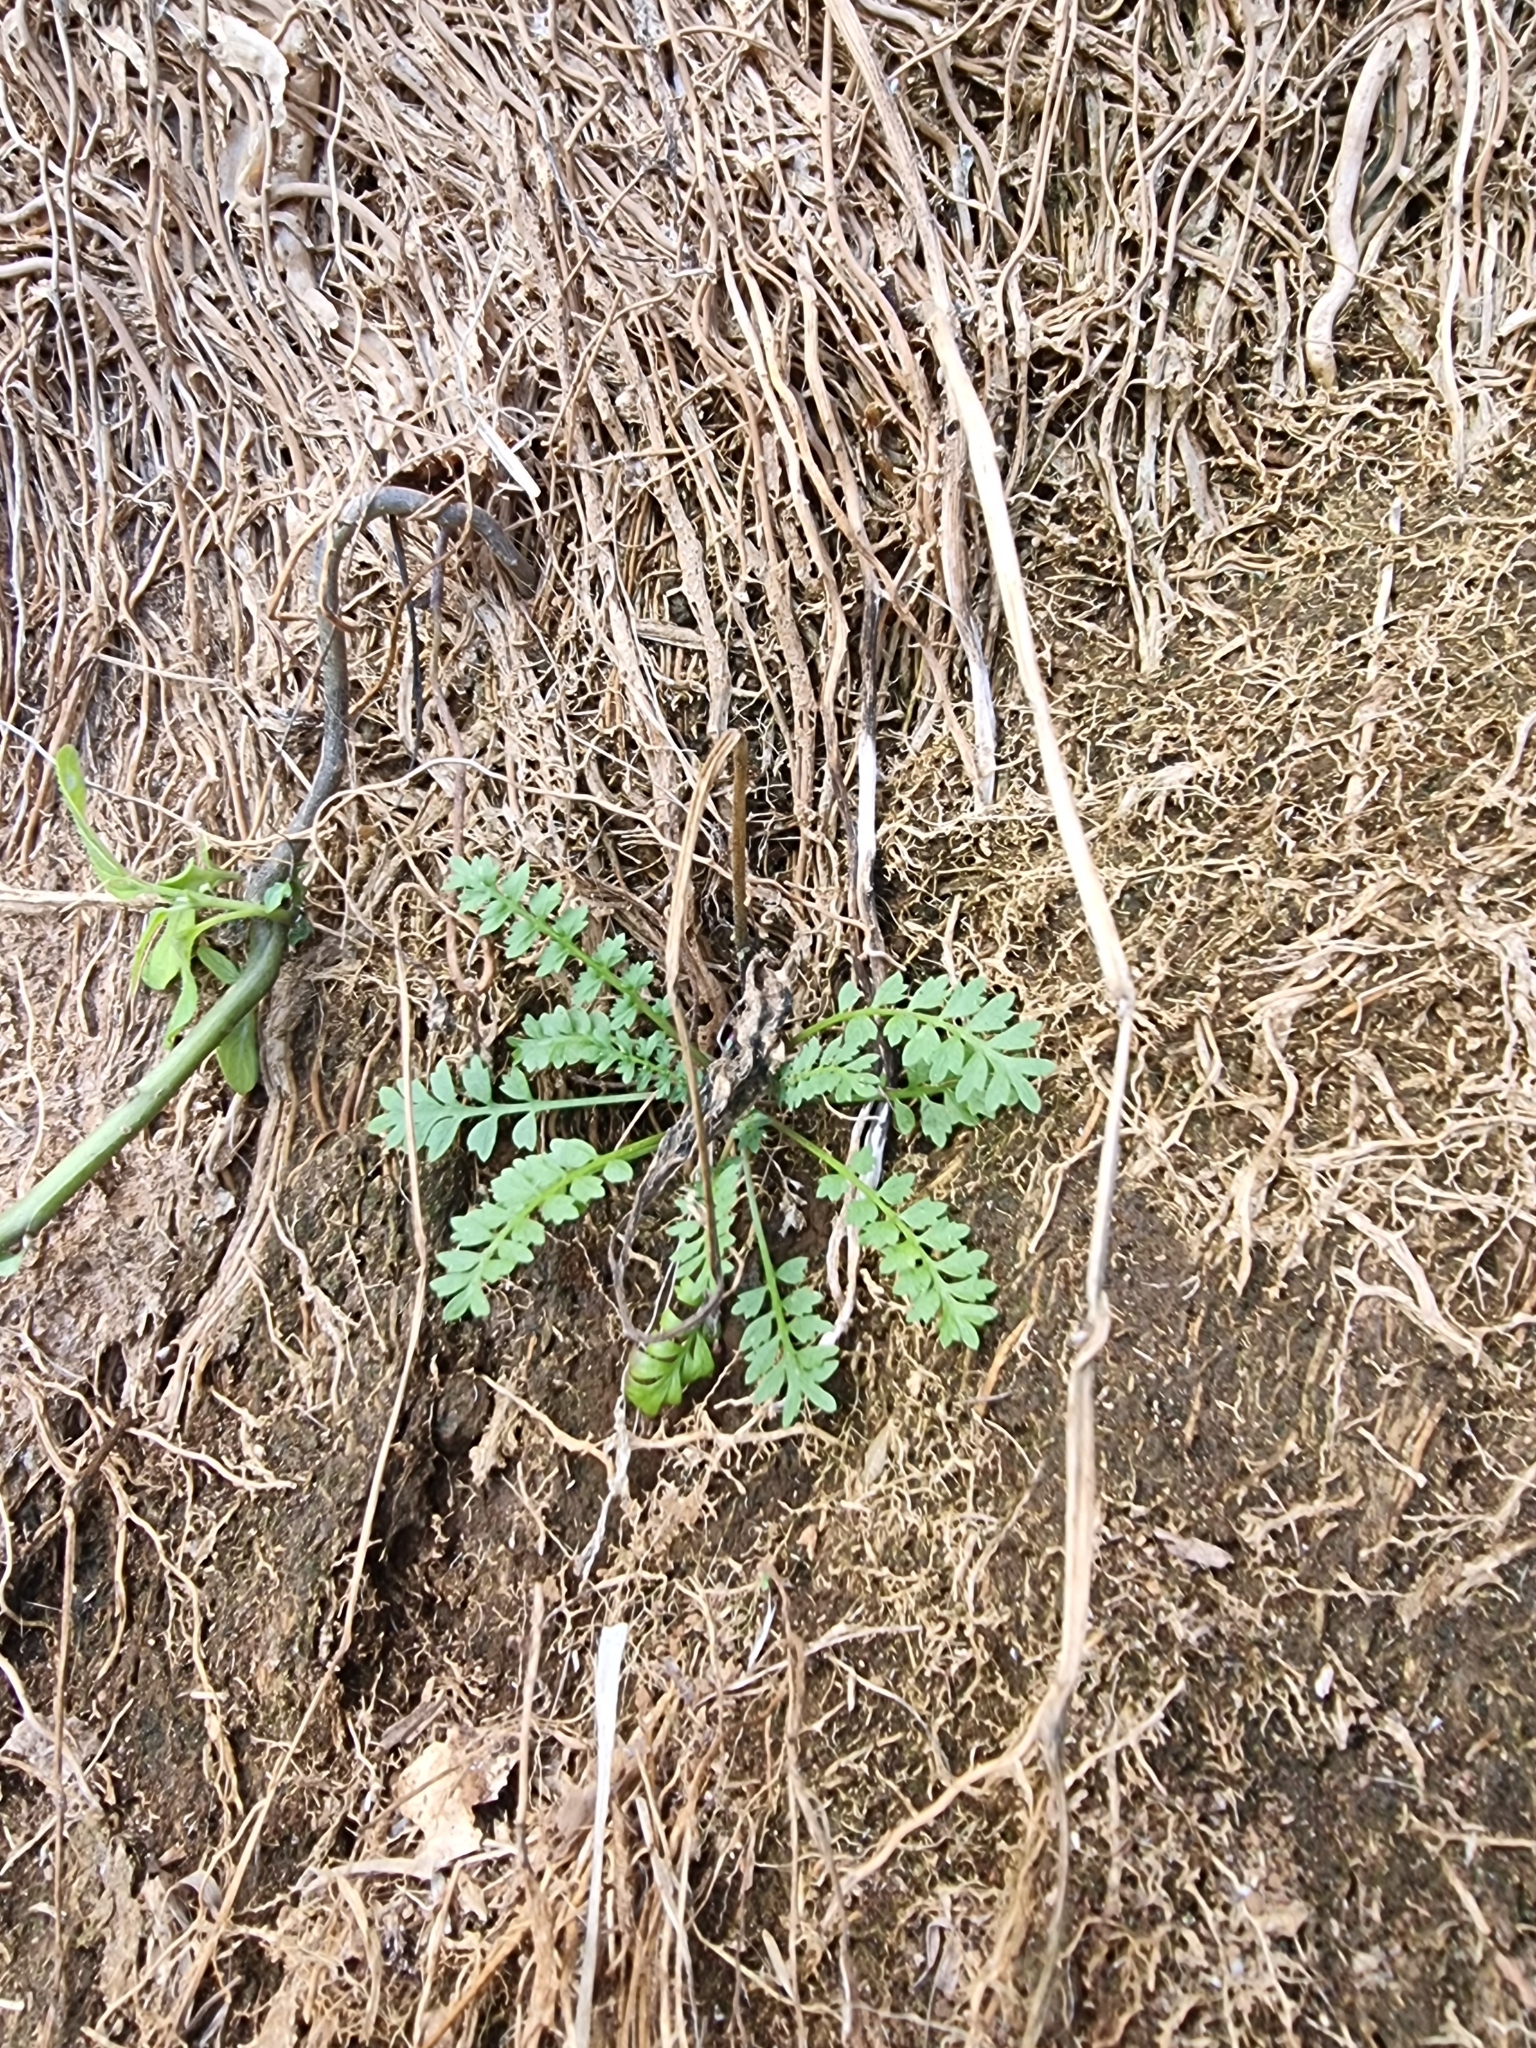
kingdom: Plantae
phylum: Tracheophyta
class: Magnoliopsida
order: Brassicales
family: Brassicaceae
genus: Lepidium
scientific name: Lepidium didymum
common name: Lesser swinecress
